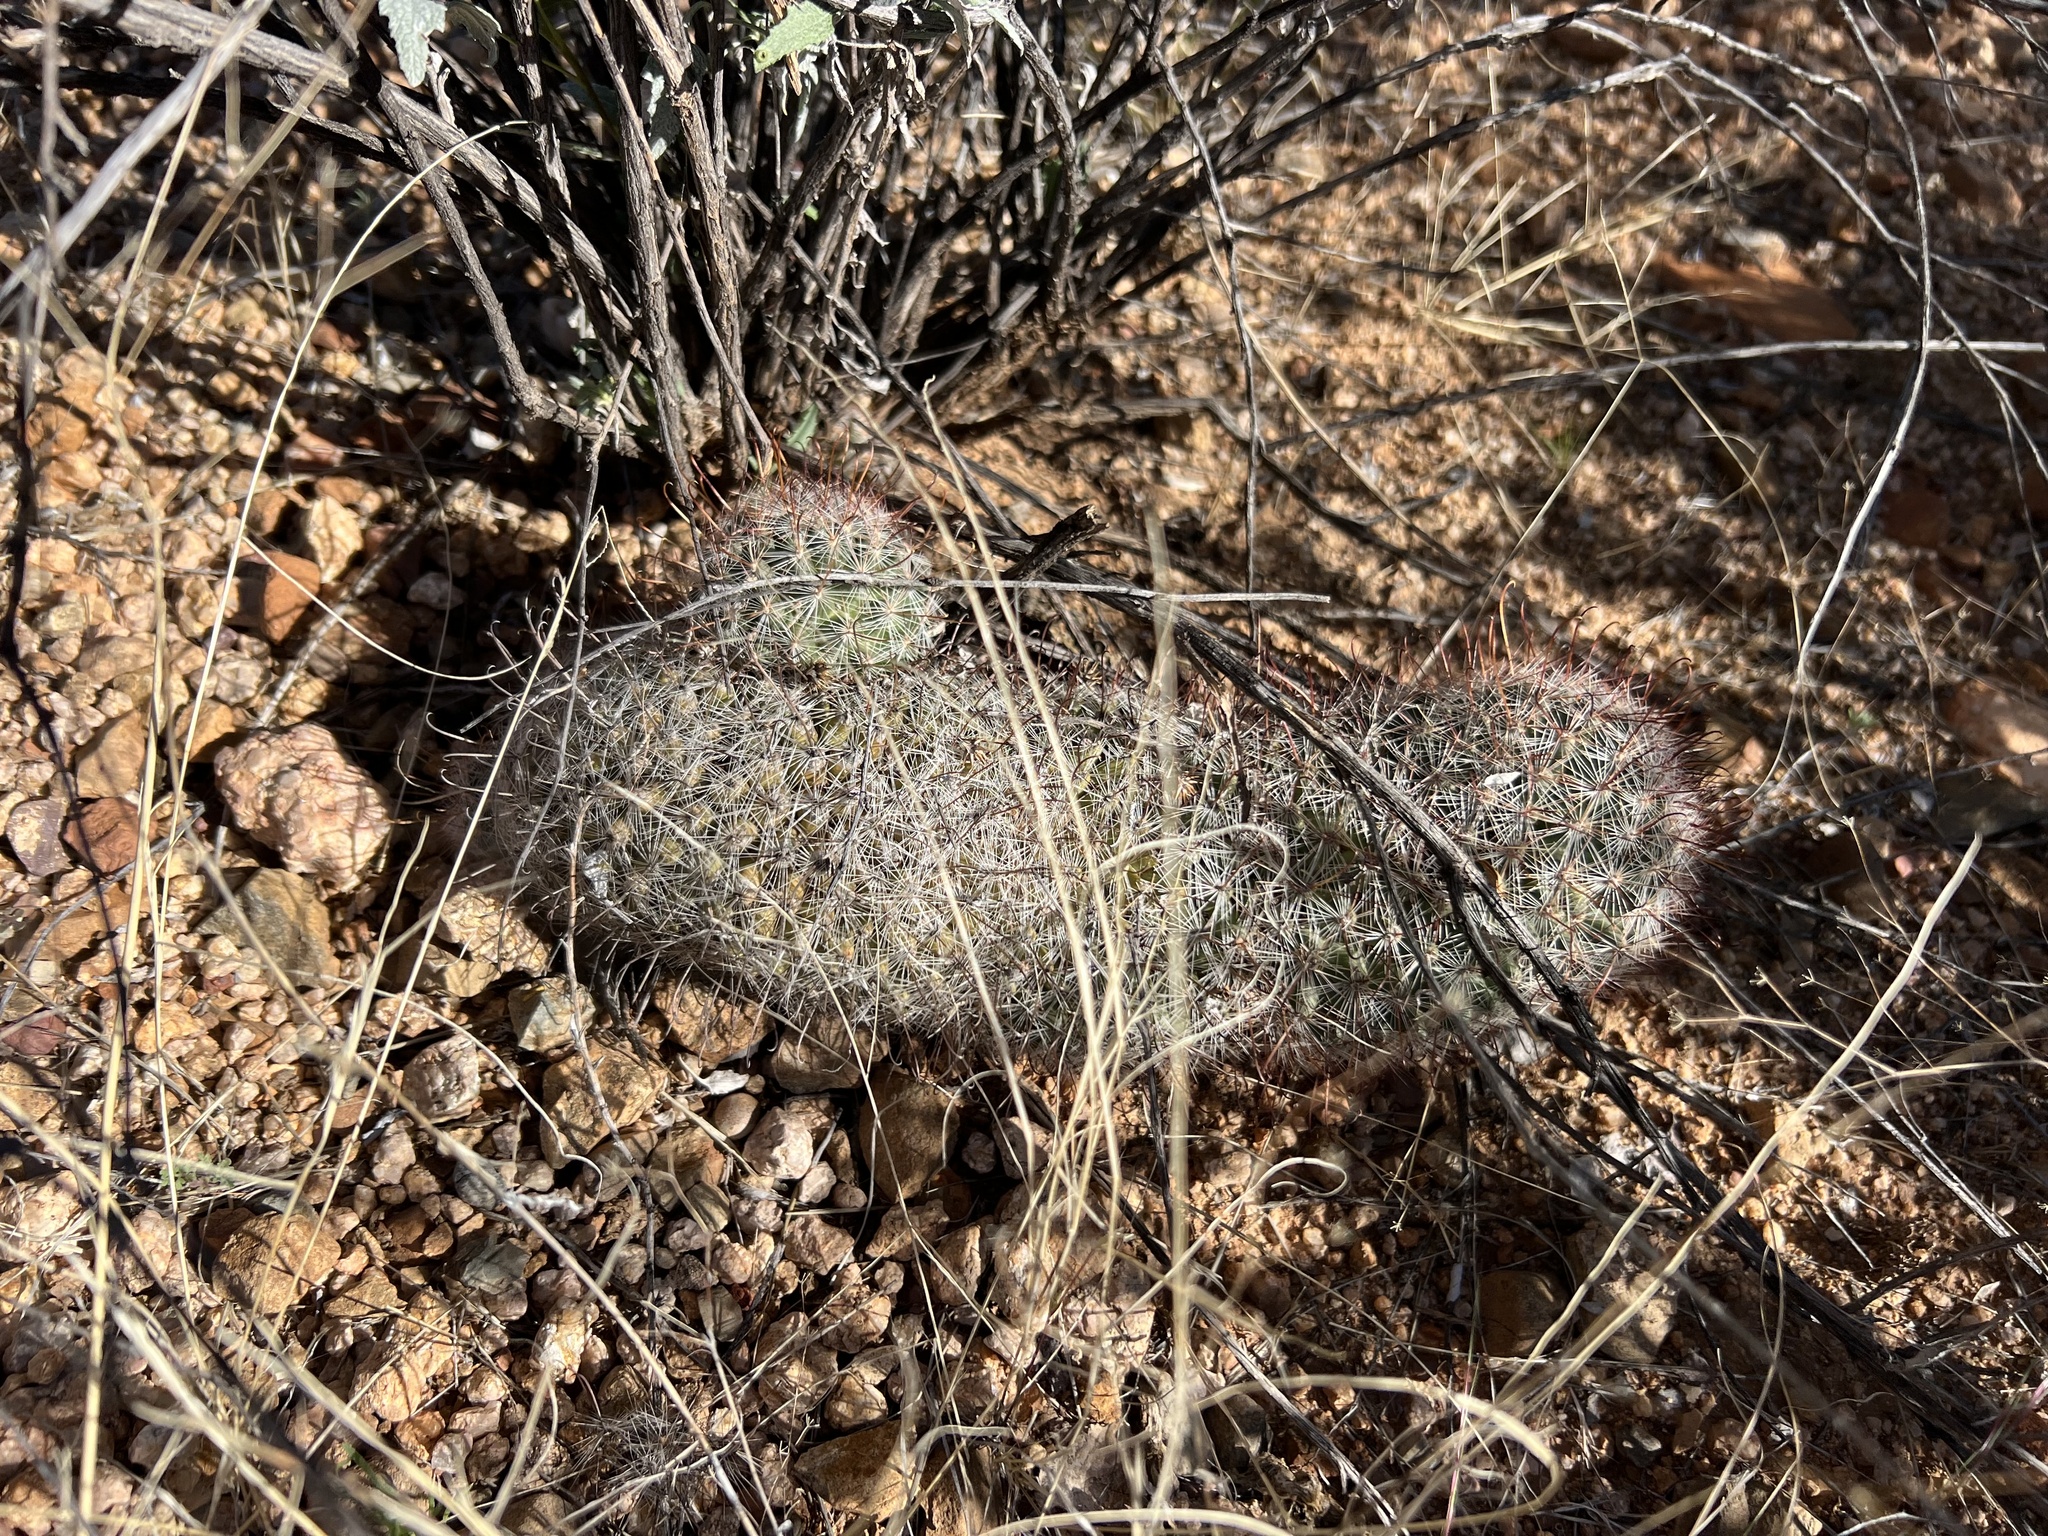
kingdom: Plantae
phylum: Tracheophyta
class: Magnoliopsida
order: Caryophyllales
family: Cactaceae
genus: Cochemiea
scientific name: Cochemiea grahamii
